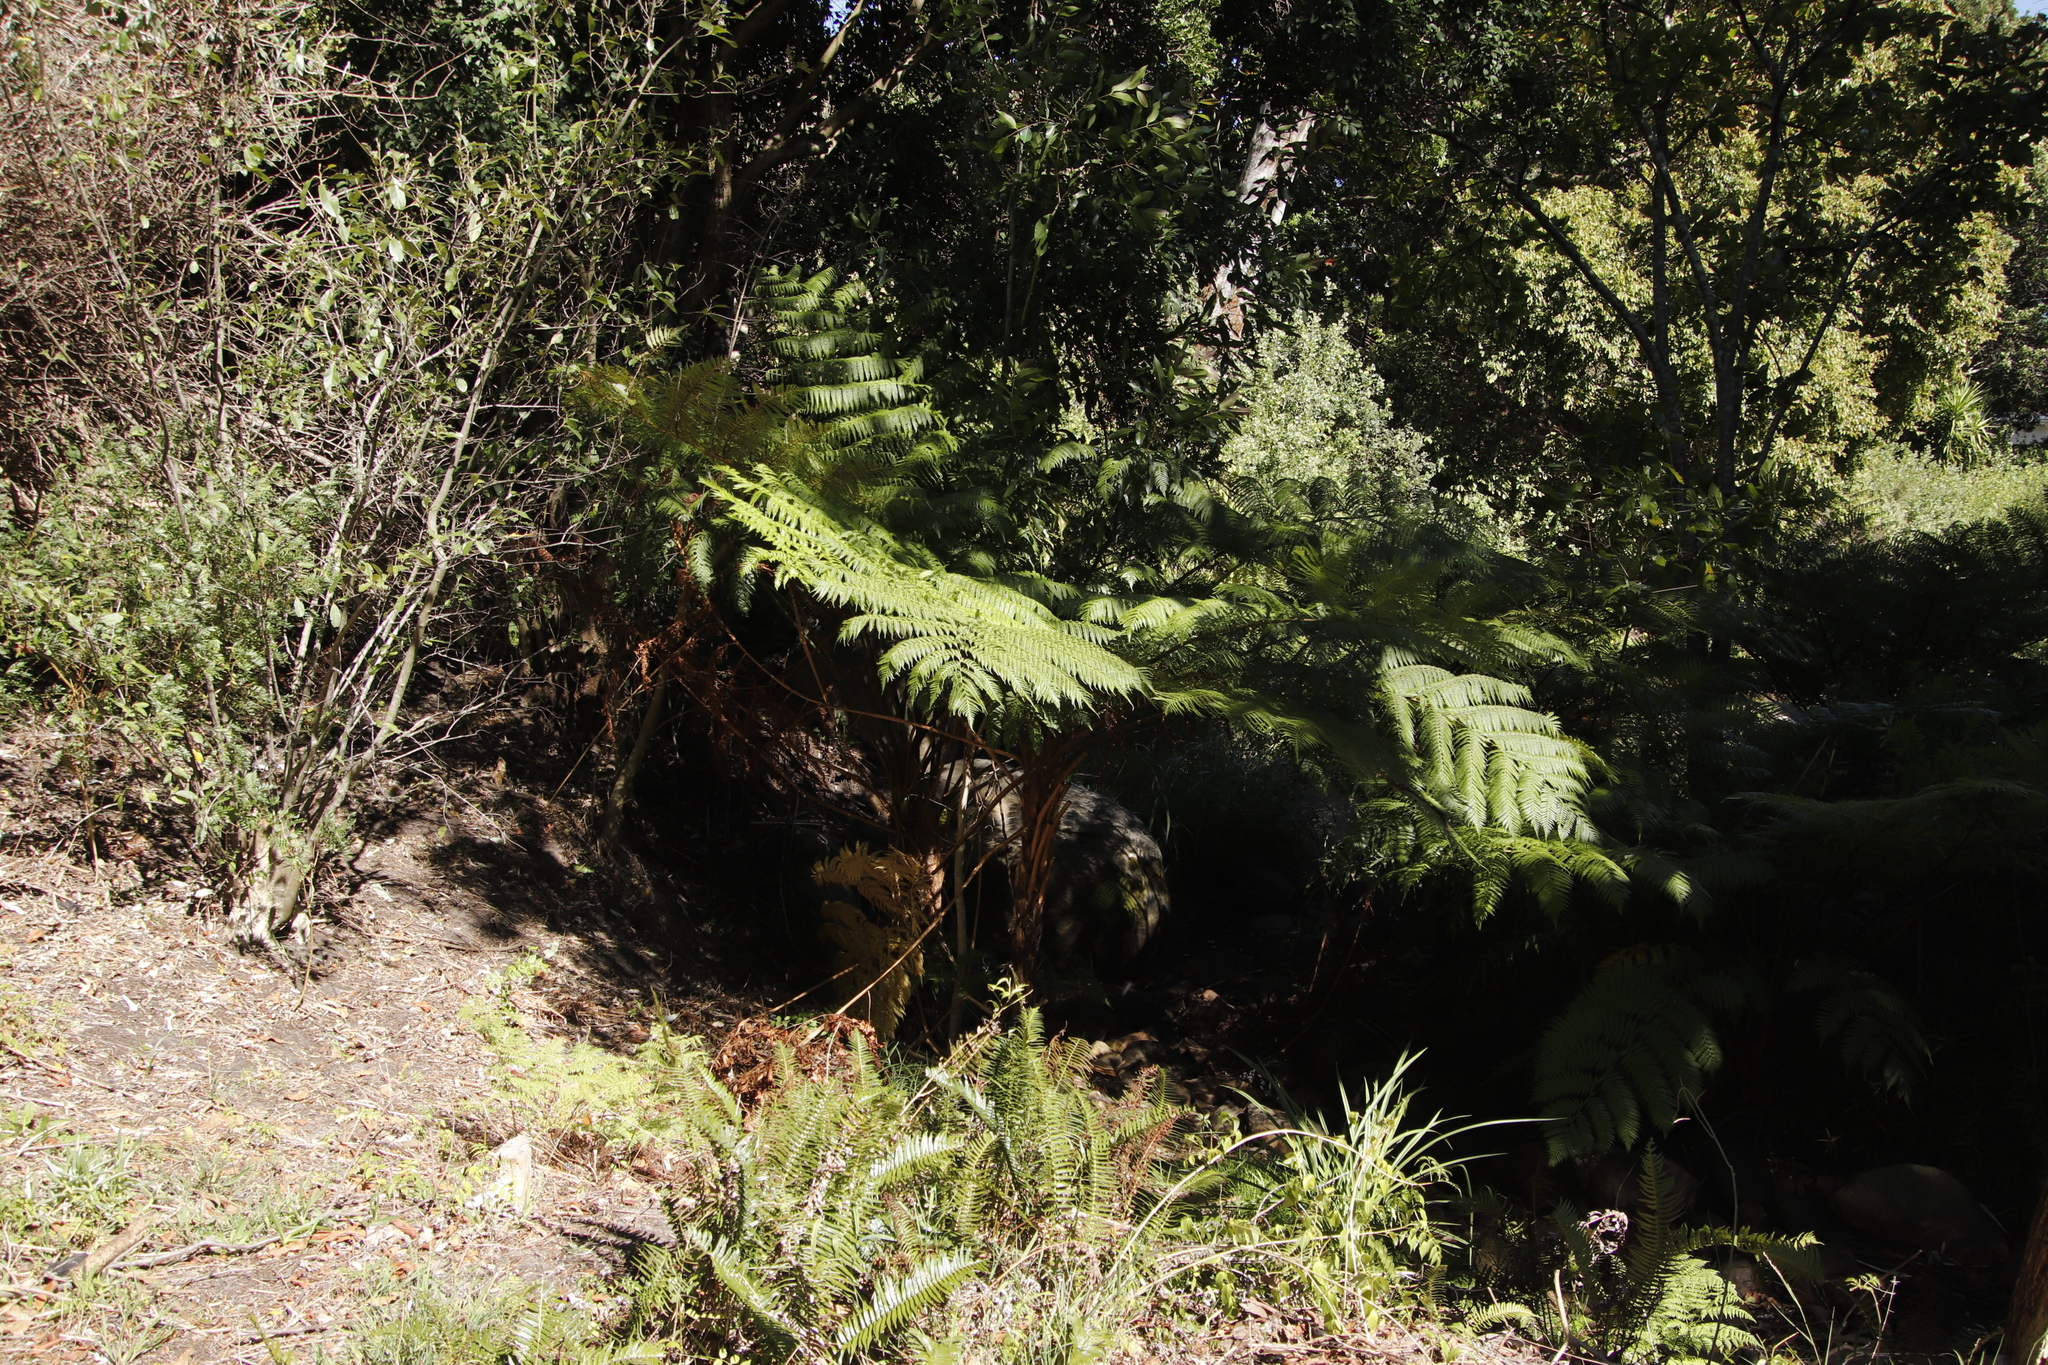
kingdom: Plantae
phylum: Tracheophyta
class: Polypodiopsida
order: Cyatheales
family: Cyatheaceae
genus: Sphaeropteris
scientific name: Sphaeropteris cooperi
